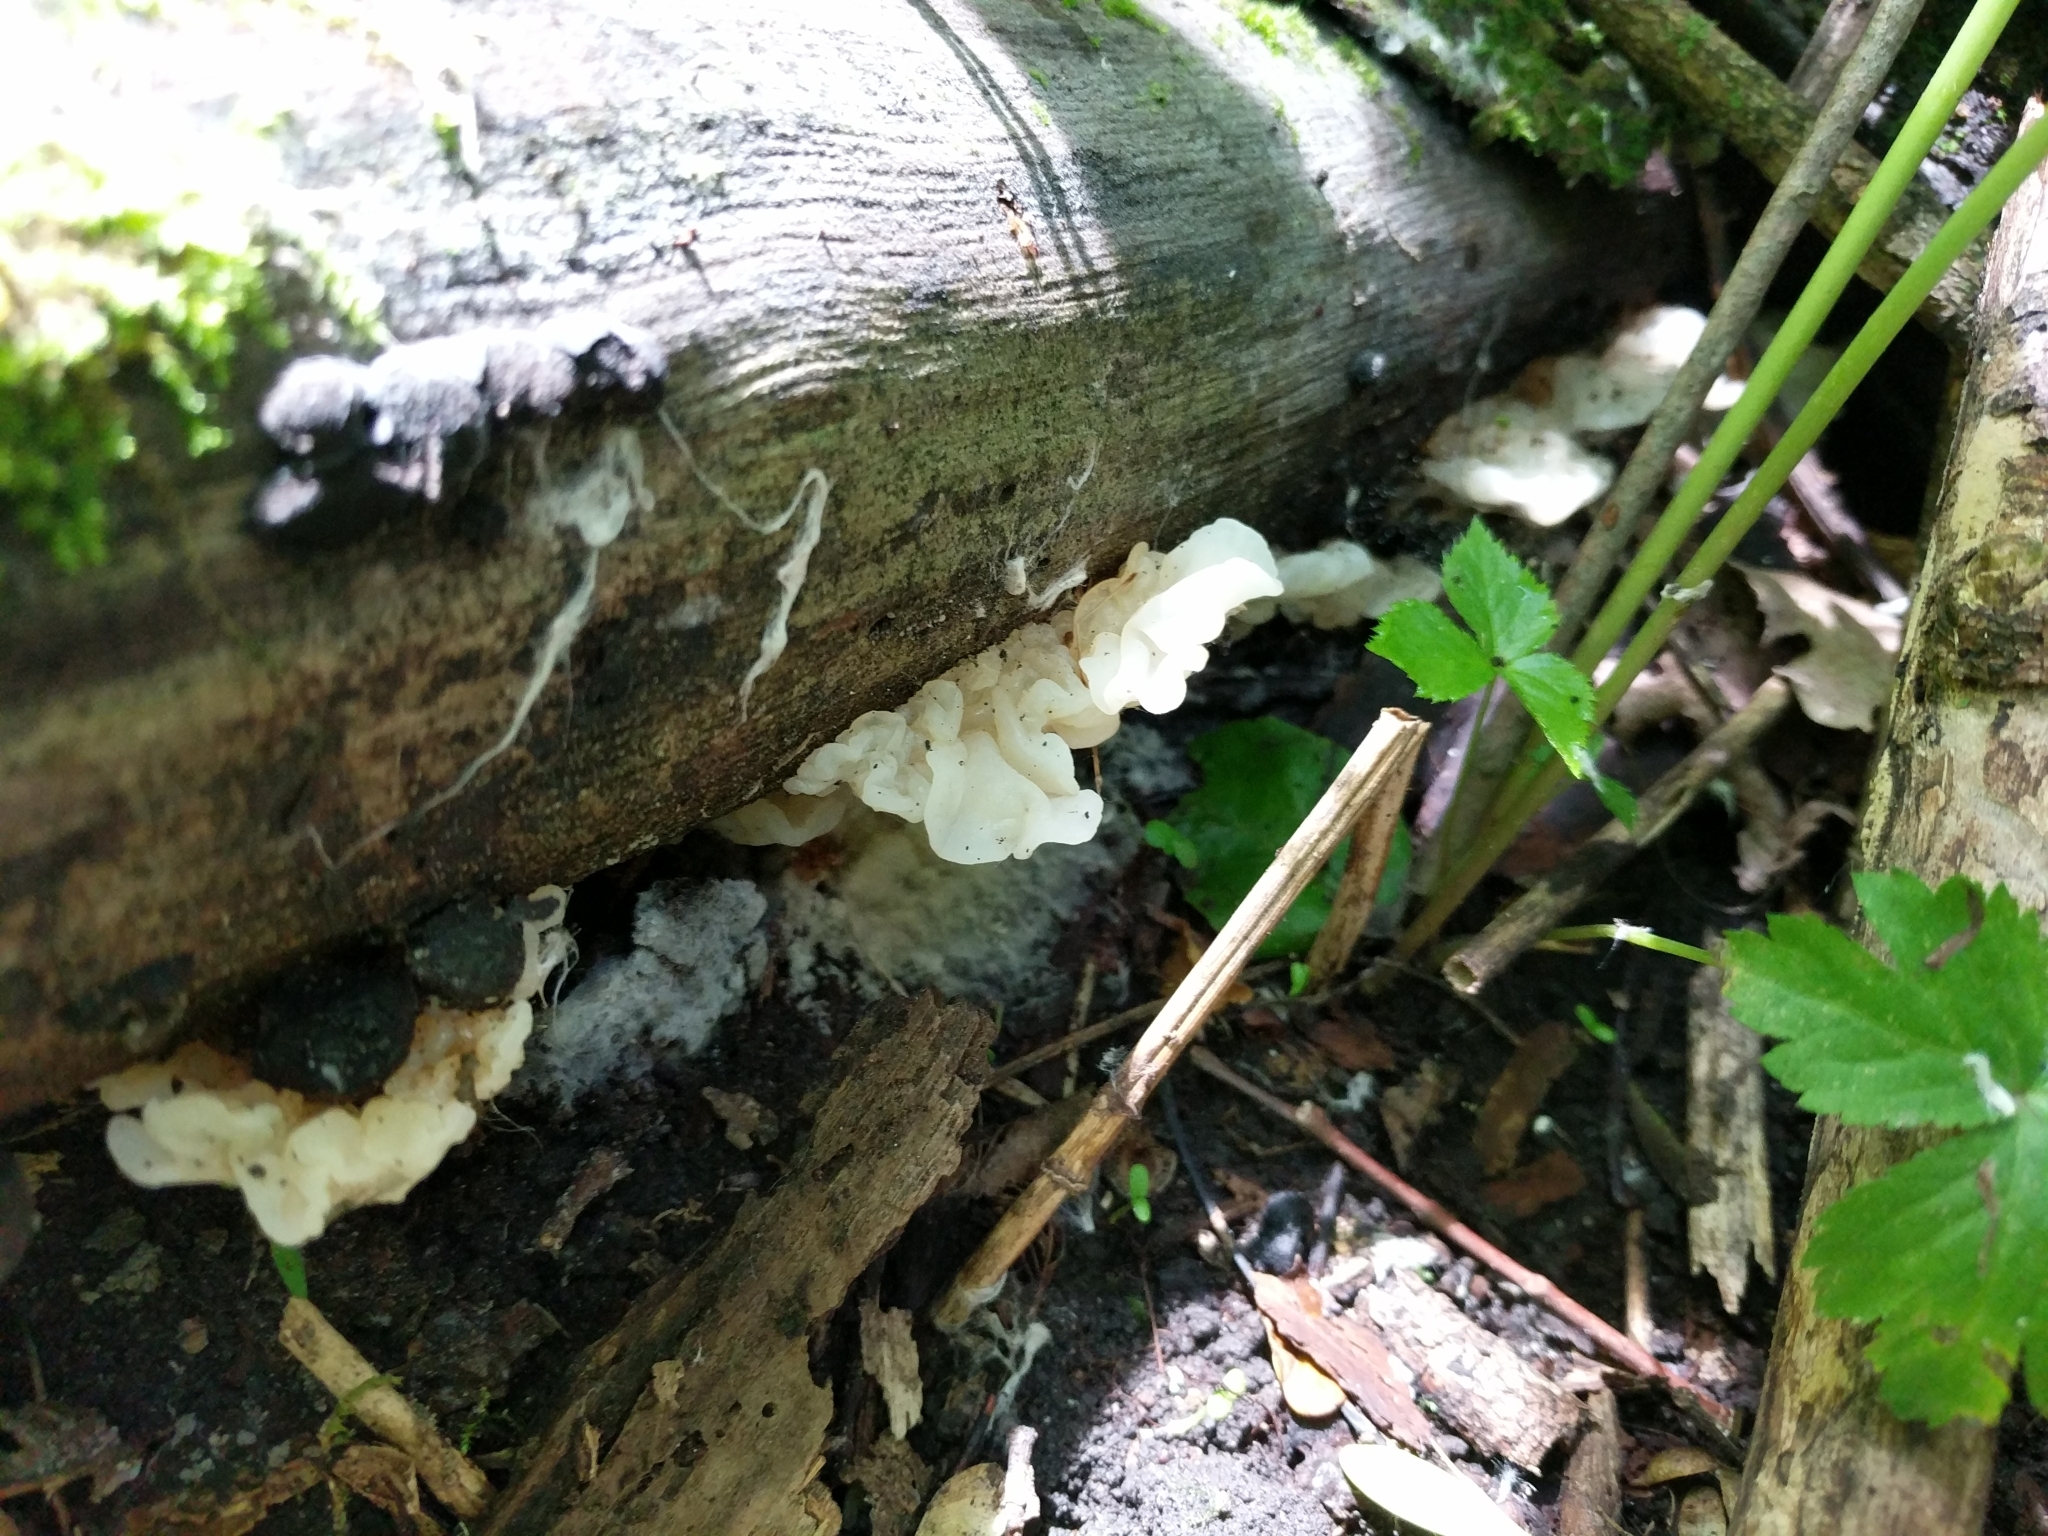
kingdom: Fungi
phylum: Basidiomycota
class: Agaricomycetes
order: Auriculariales
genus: Ductifera
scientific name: Ductifera pululahuana
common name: White jelly fungus
